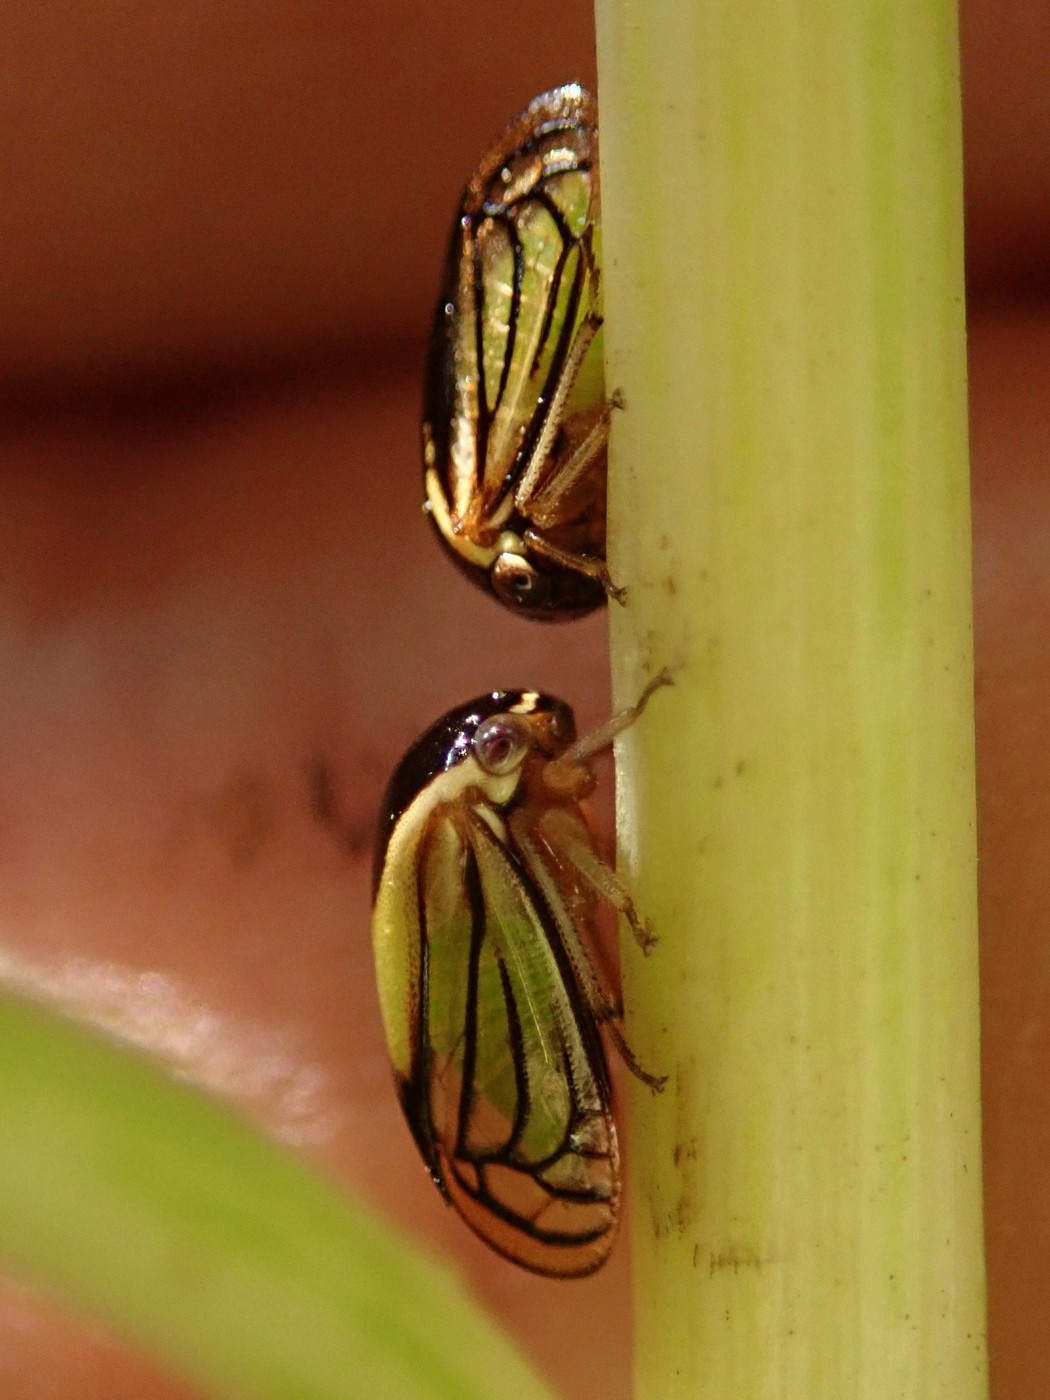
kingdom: Animalia
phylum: Arthropoda
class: Insecta
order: Hemiptera
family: Membracidae
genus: Acutalis
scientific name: Acutalis tartarea
